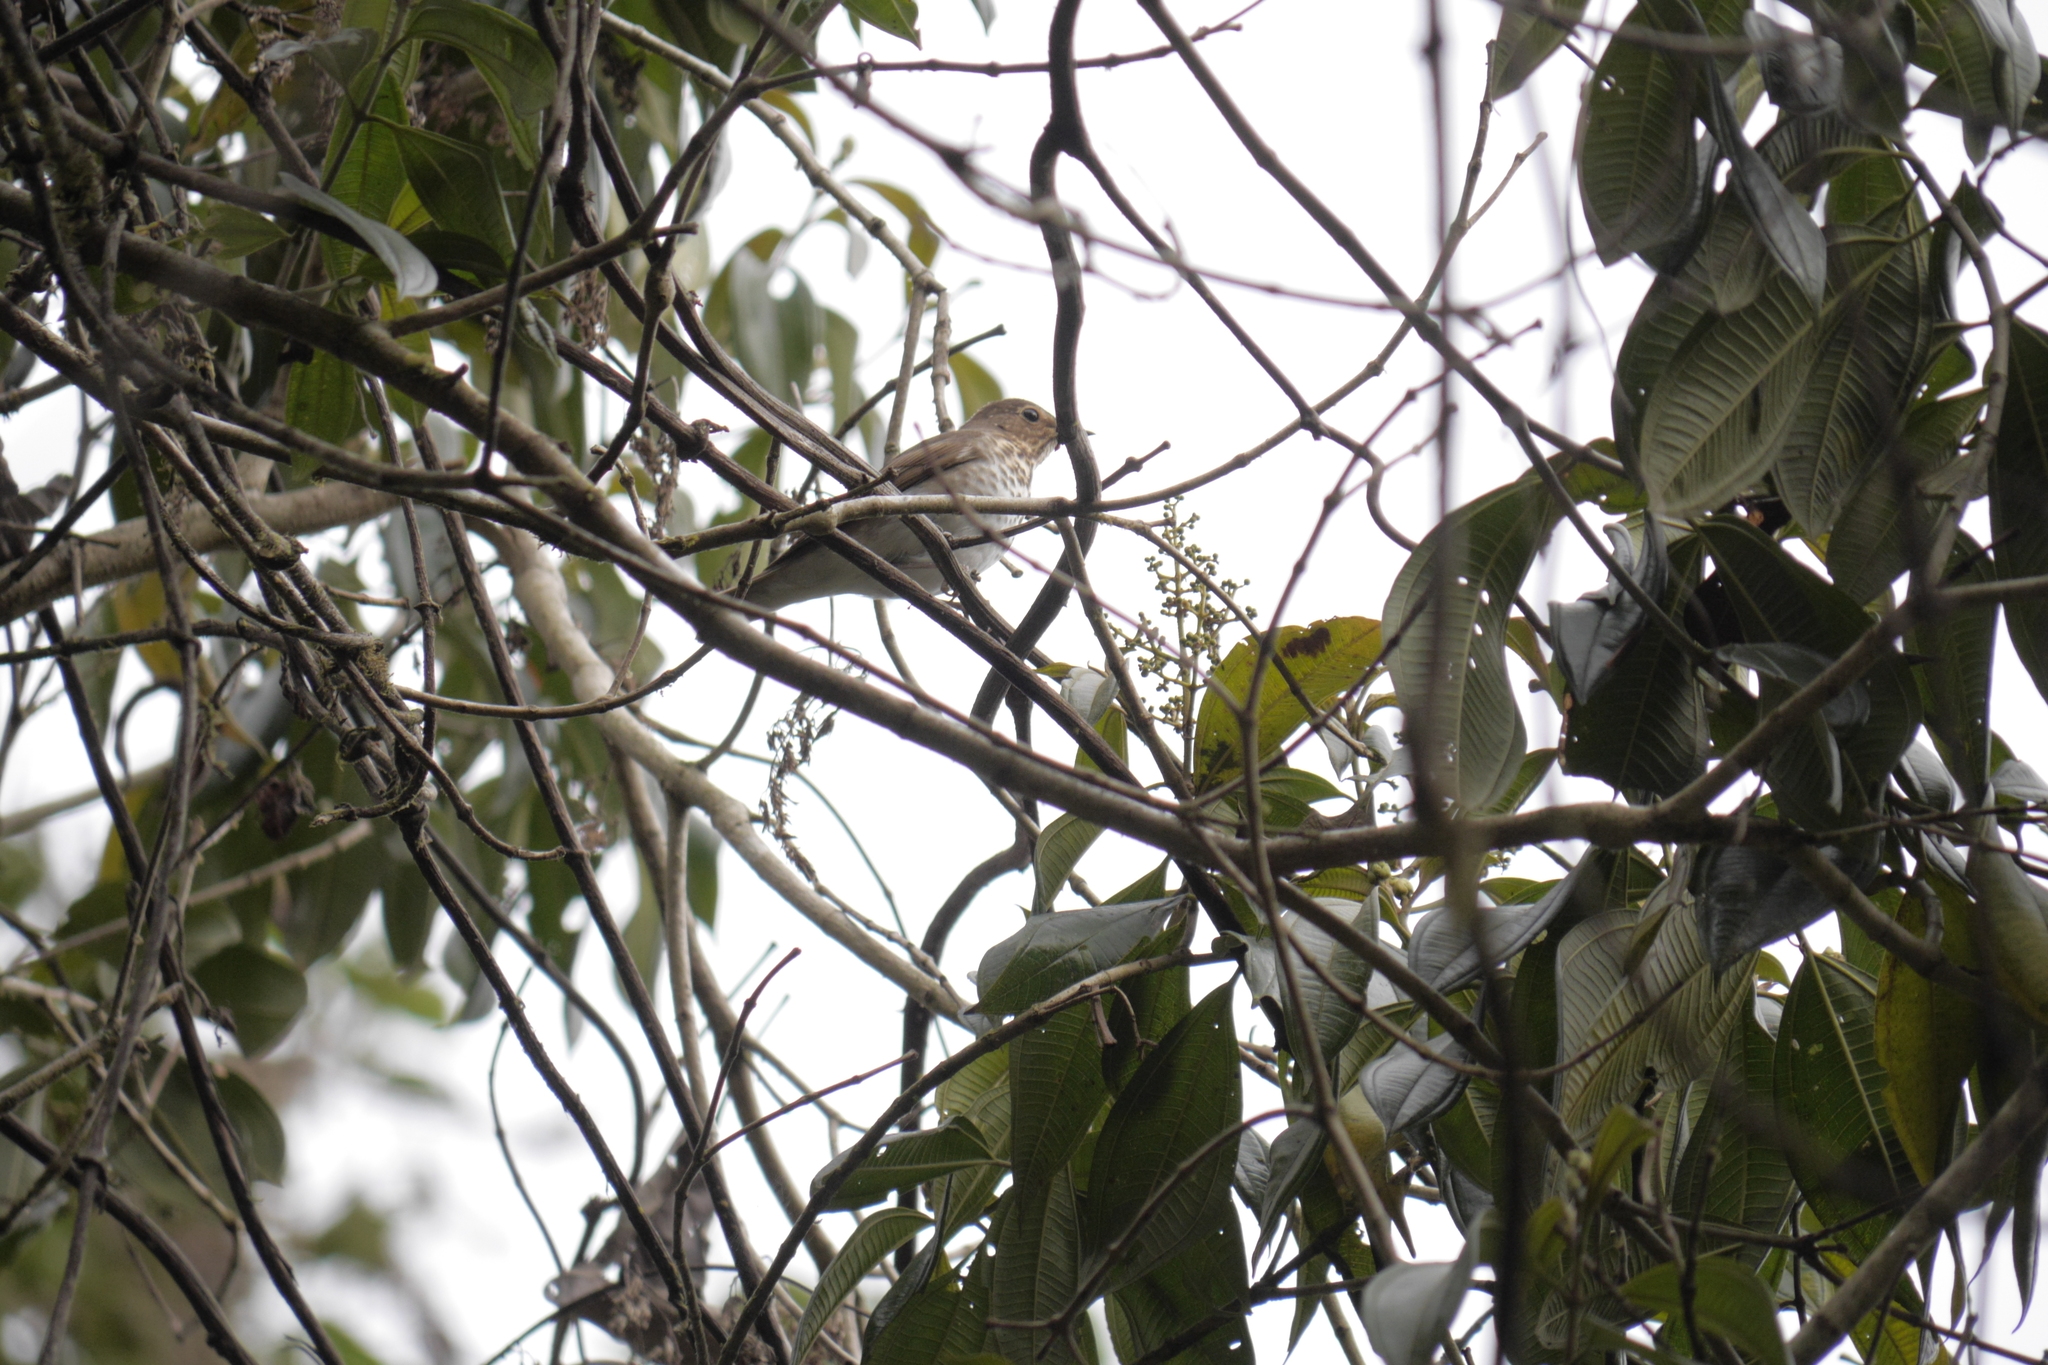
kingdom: Animalia
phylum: Chordata
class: Aves
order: Passeriformes
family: Turdidae
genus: Catharus
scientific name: Catharus ustulatus
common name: Swainson's thrush
